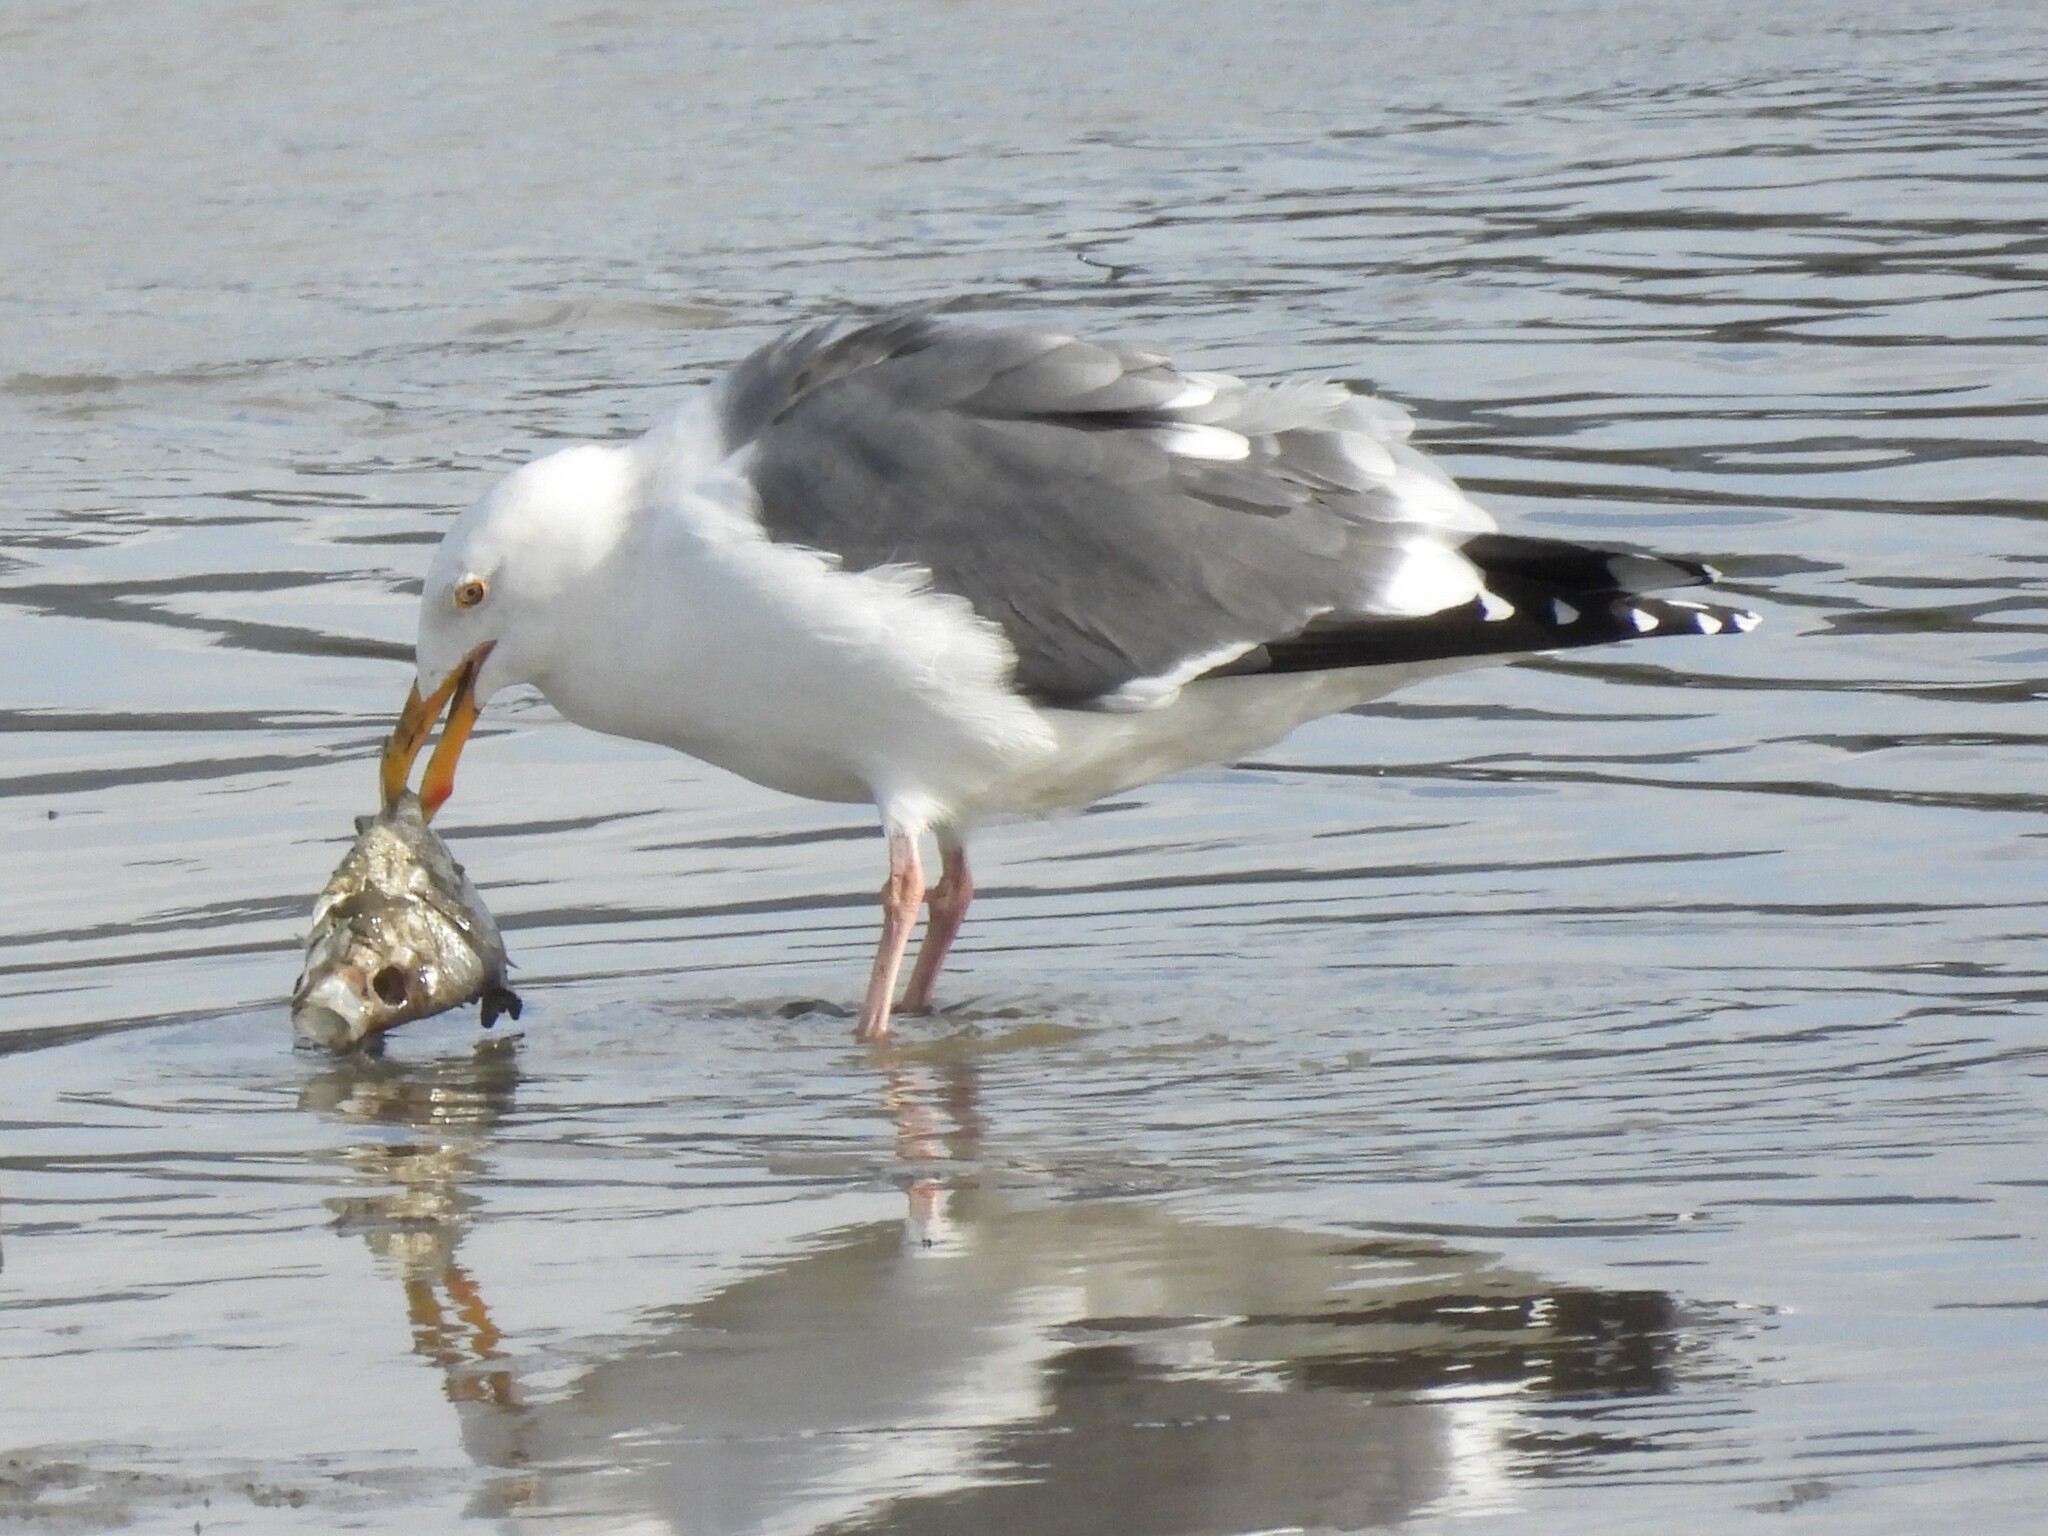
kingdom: Animalia
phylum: Chordata
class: Aves
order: Charadriiformes
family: Laridae
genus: Larus
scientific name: Larus occidentalis
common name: Western gull
